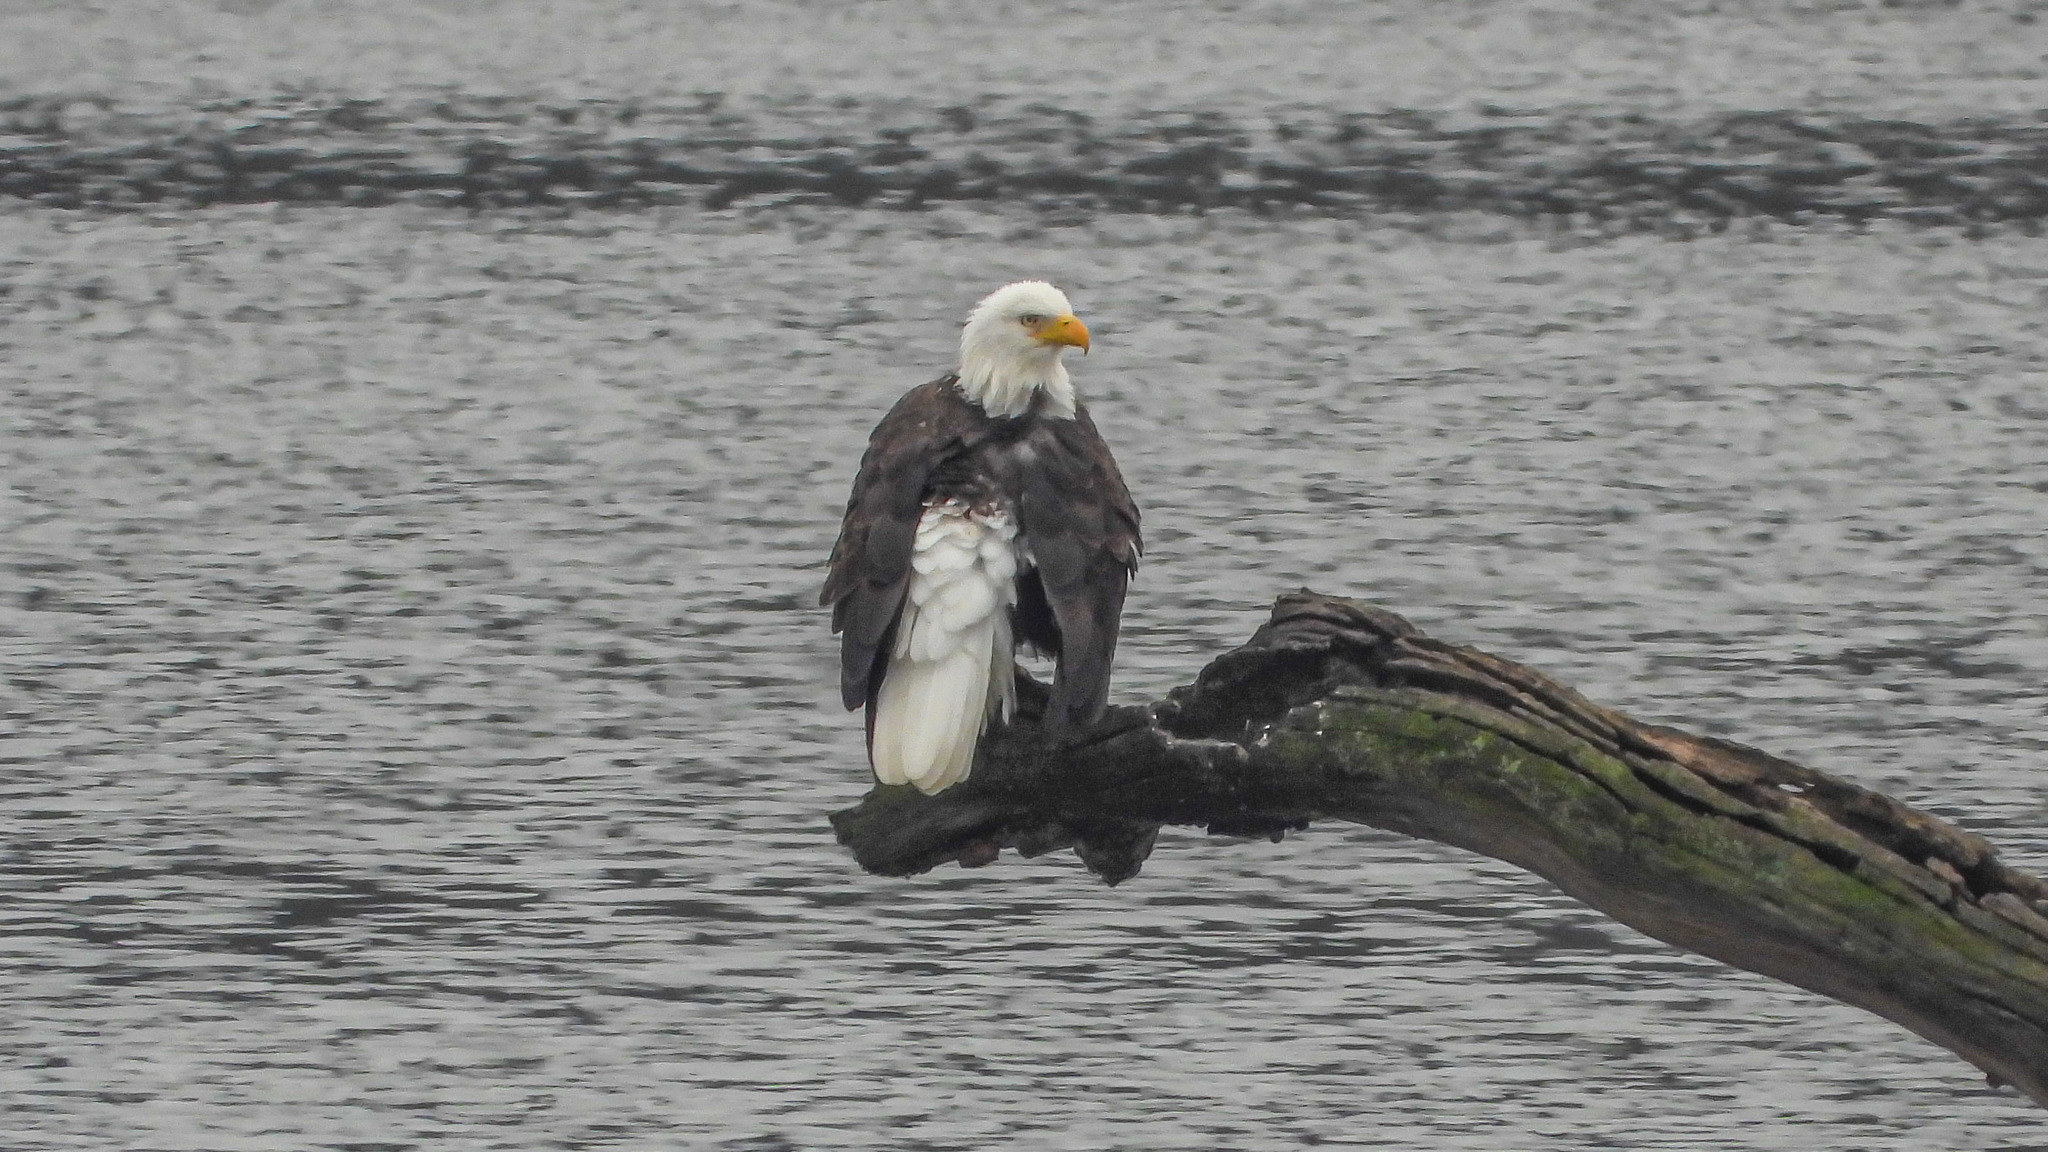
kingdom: Animalia
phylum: Chordata
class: Aves
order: Accipitriformes
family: Accipitridae
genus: Haliaeetus
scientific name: Haliaeetus leucocephalus
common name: Bald eagle
